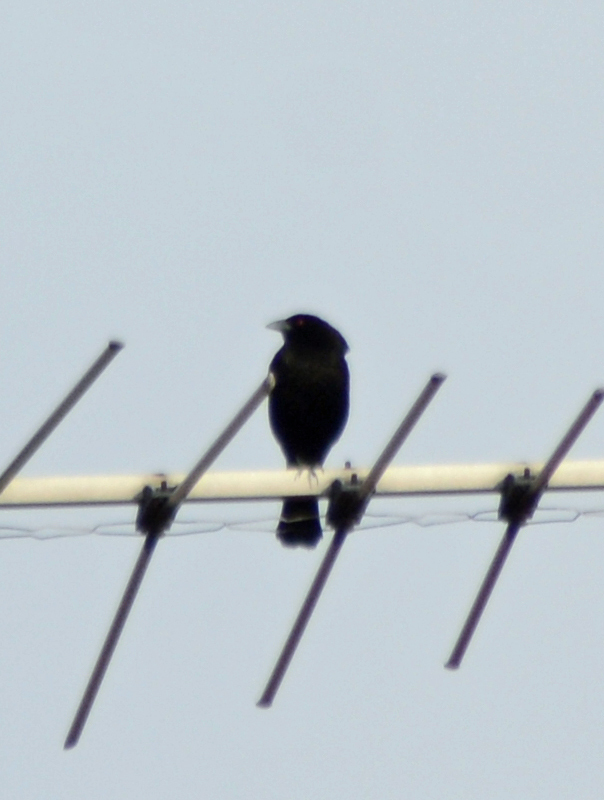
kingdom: Animalia
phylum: Chordata
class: Aves
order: Passeriformes
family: Icteridae
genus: Molothrus
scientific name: Molothrus aeneus
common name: Bronzed cowbird
